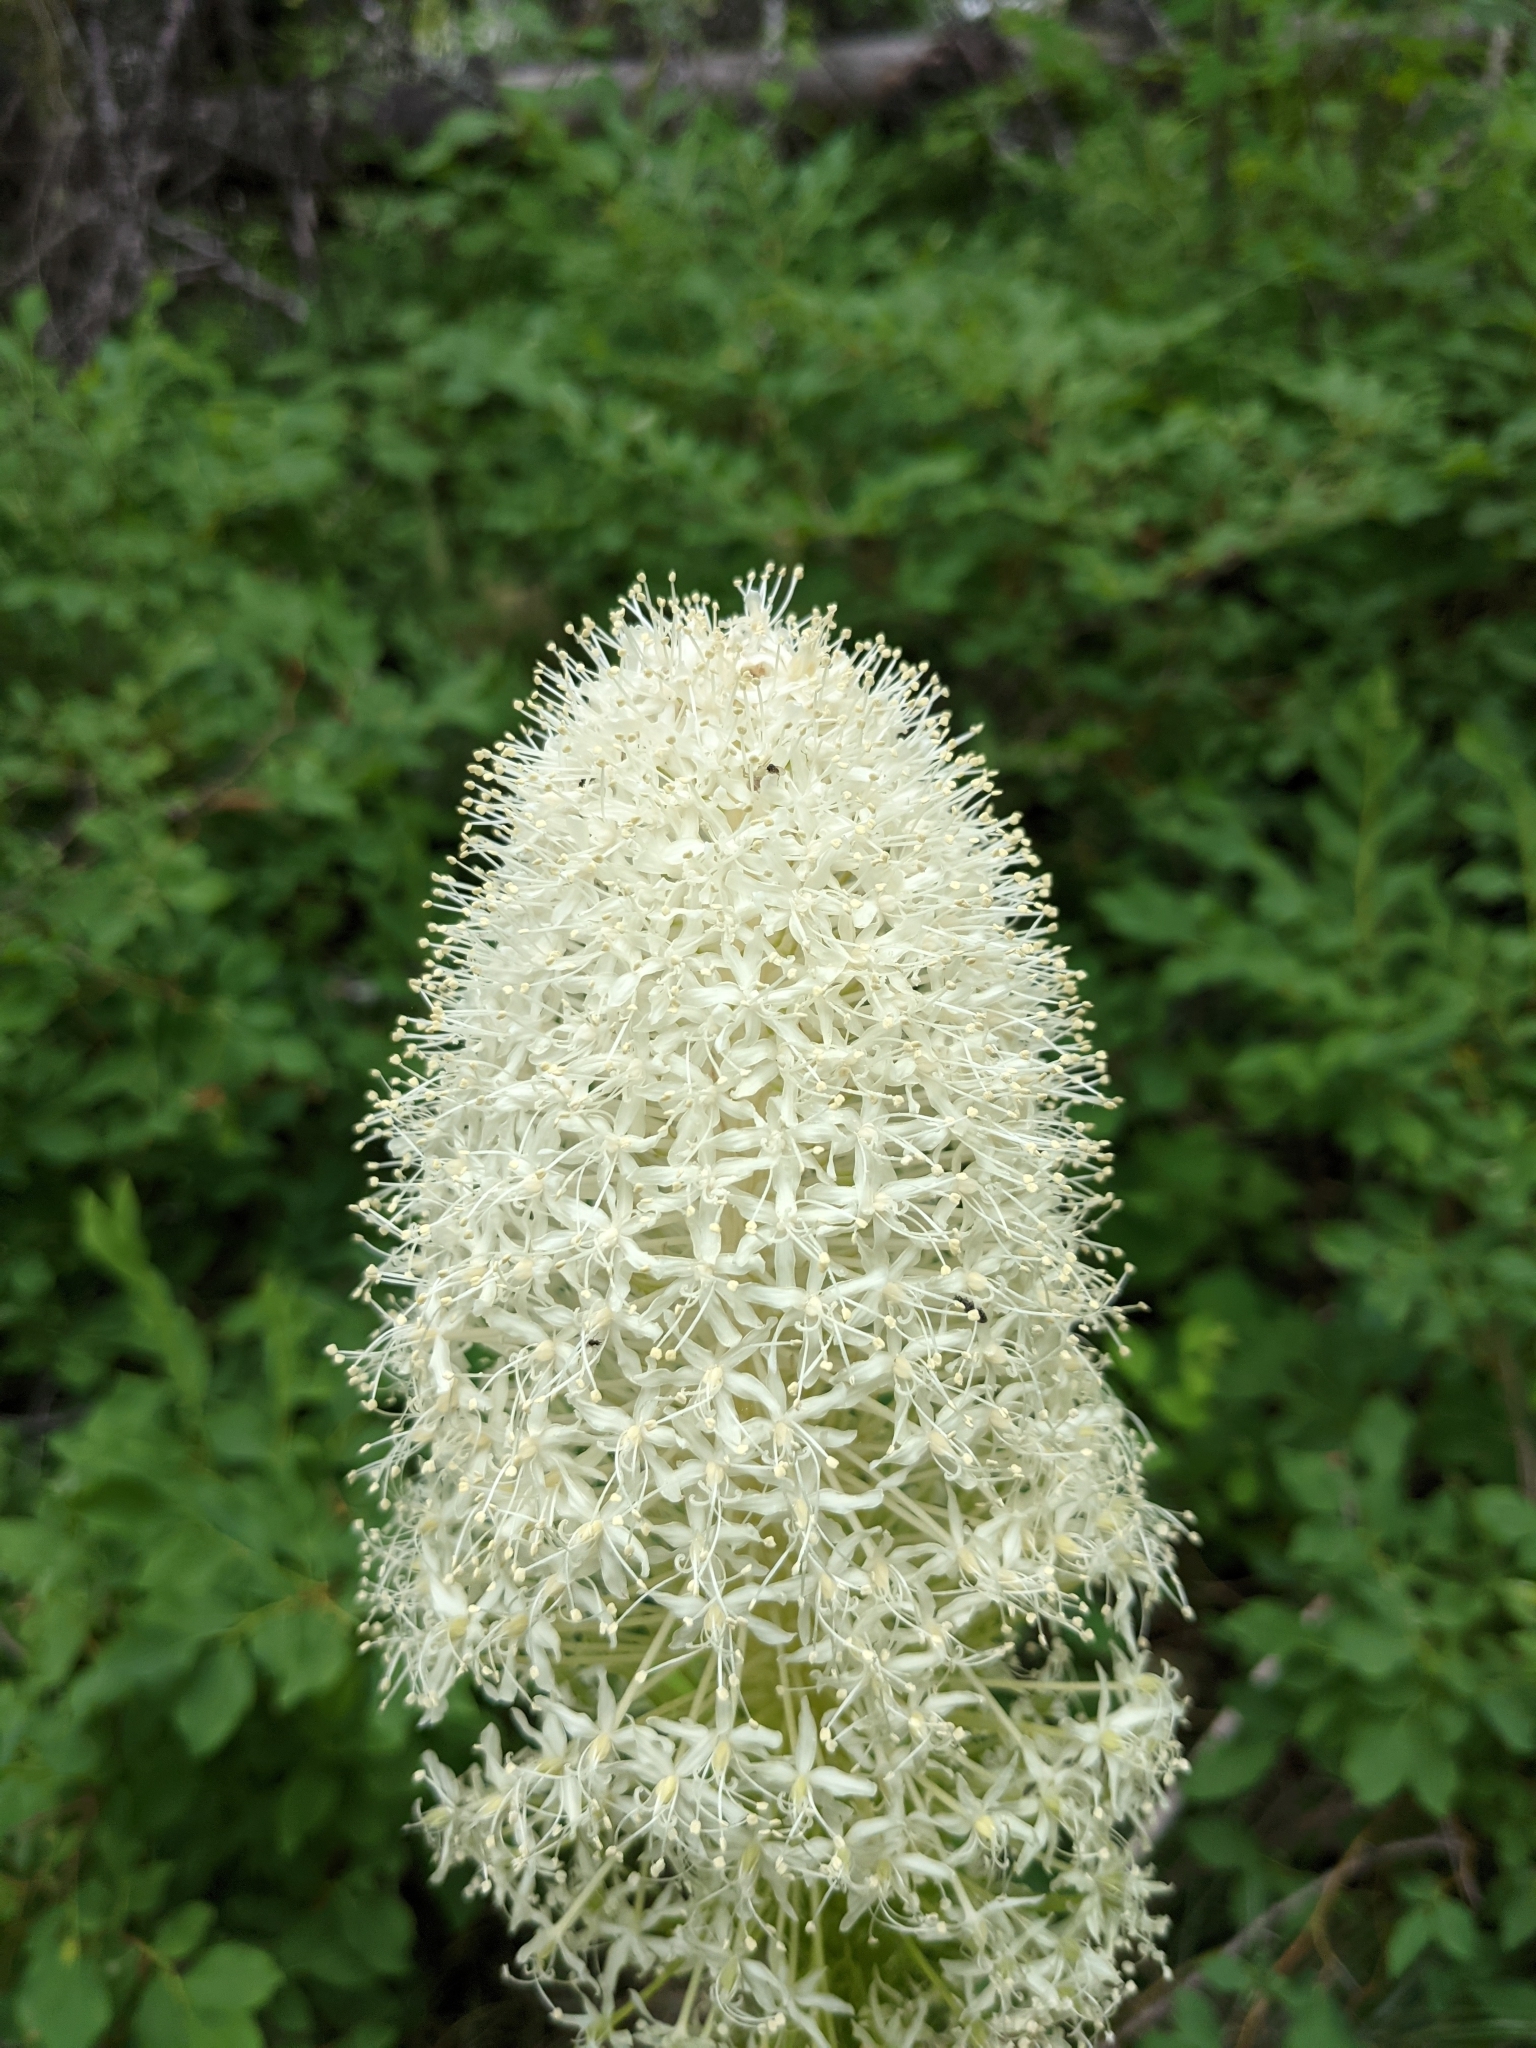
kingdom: Plantae
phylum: Tracheophyta
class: Liliopsida
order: Liliales
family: Melanthiaceae
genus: Xerophyllum
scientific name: Xerophyllum tenax
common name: Bear-grass
